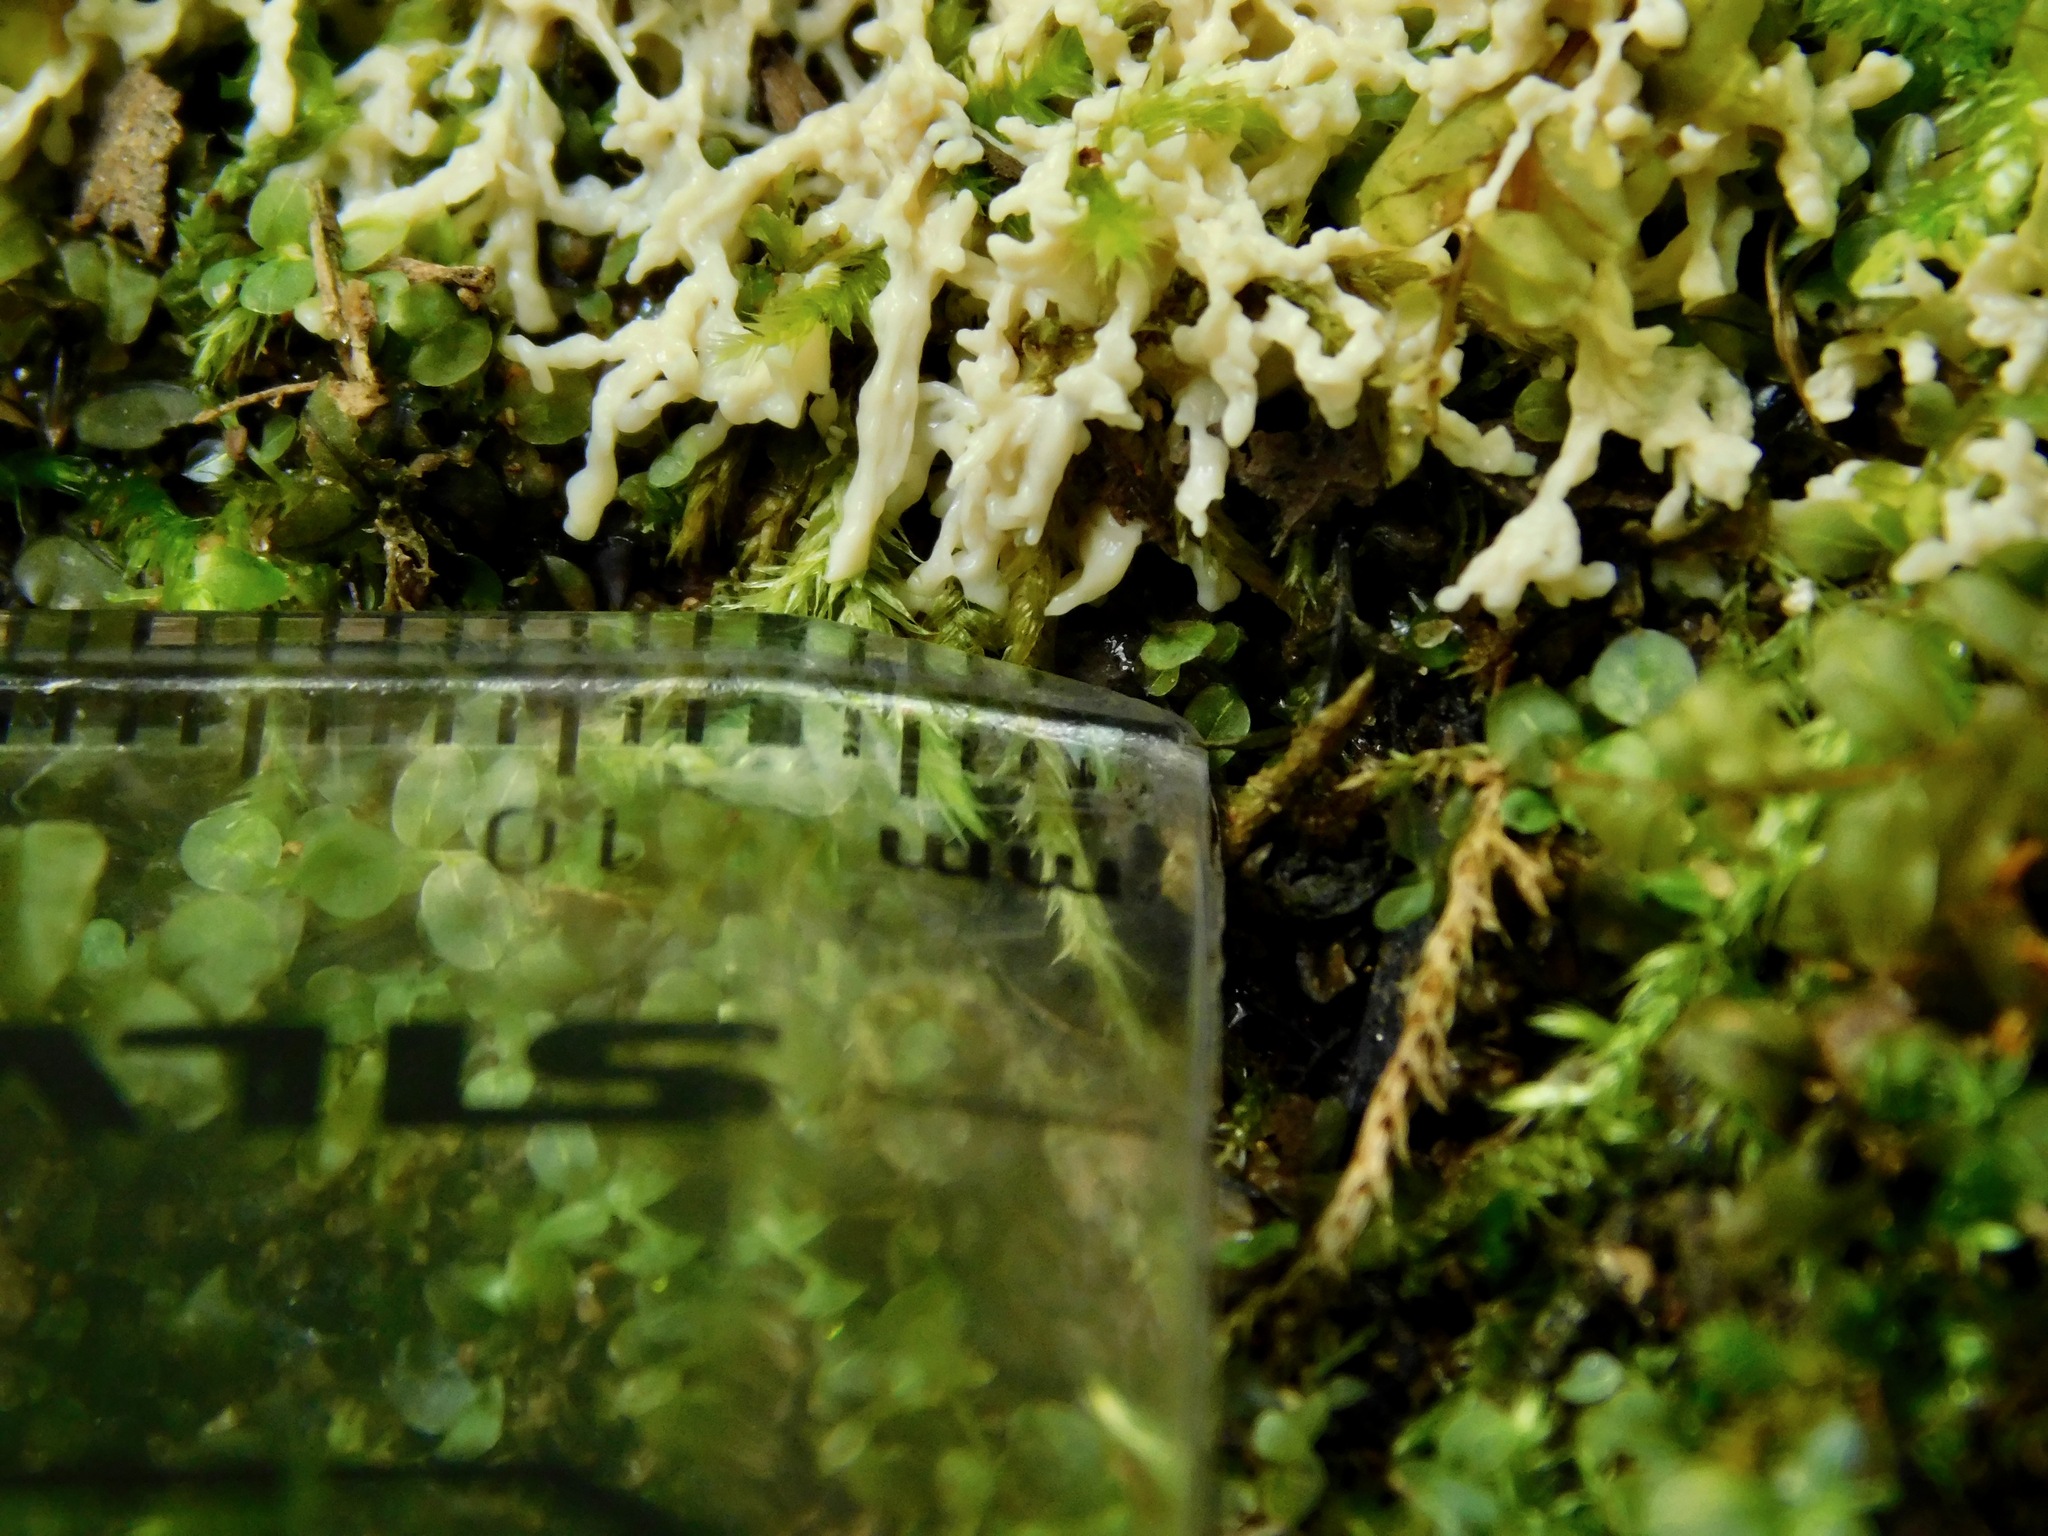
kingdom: Protozoa
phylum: Mycetozoa
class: Myxomycetes
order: Physarales
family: Physaraceae
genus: Fuligo
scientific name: Fuligo septica
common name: Dog vomit slime mold
